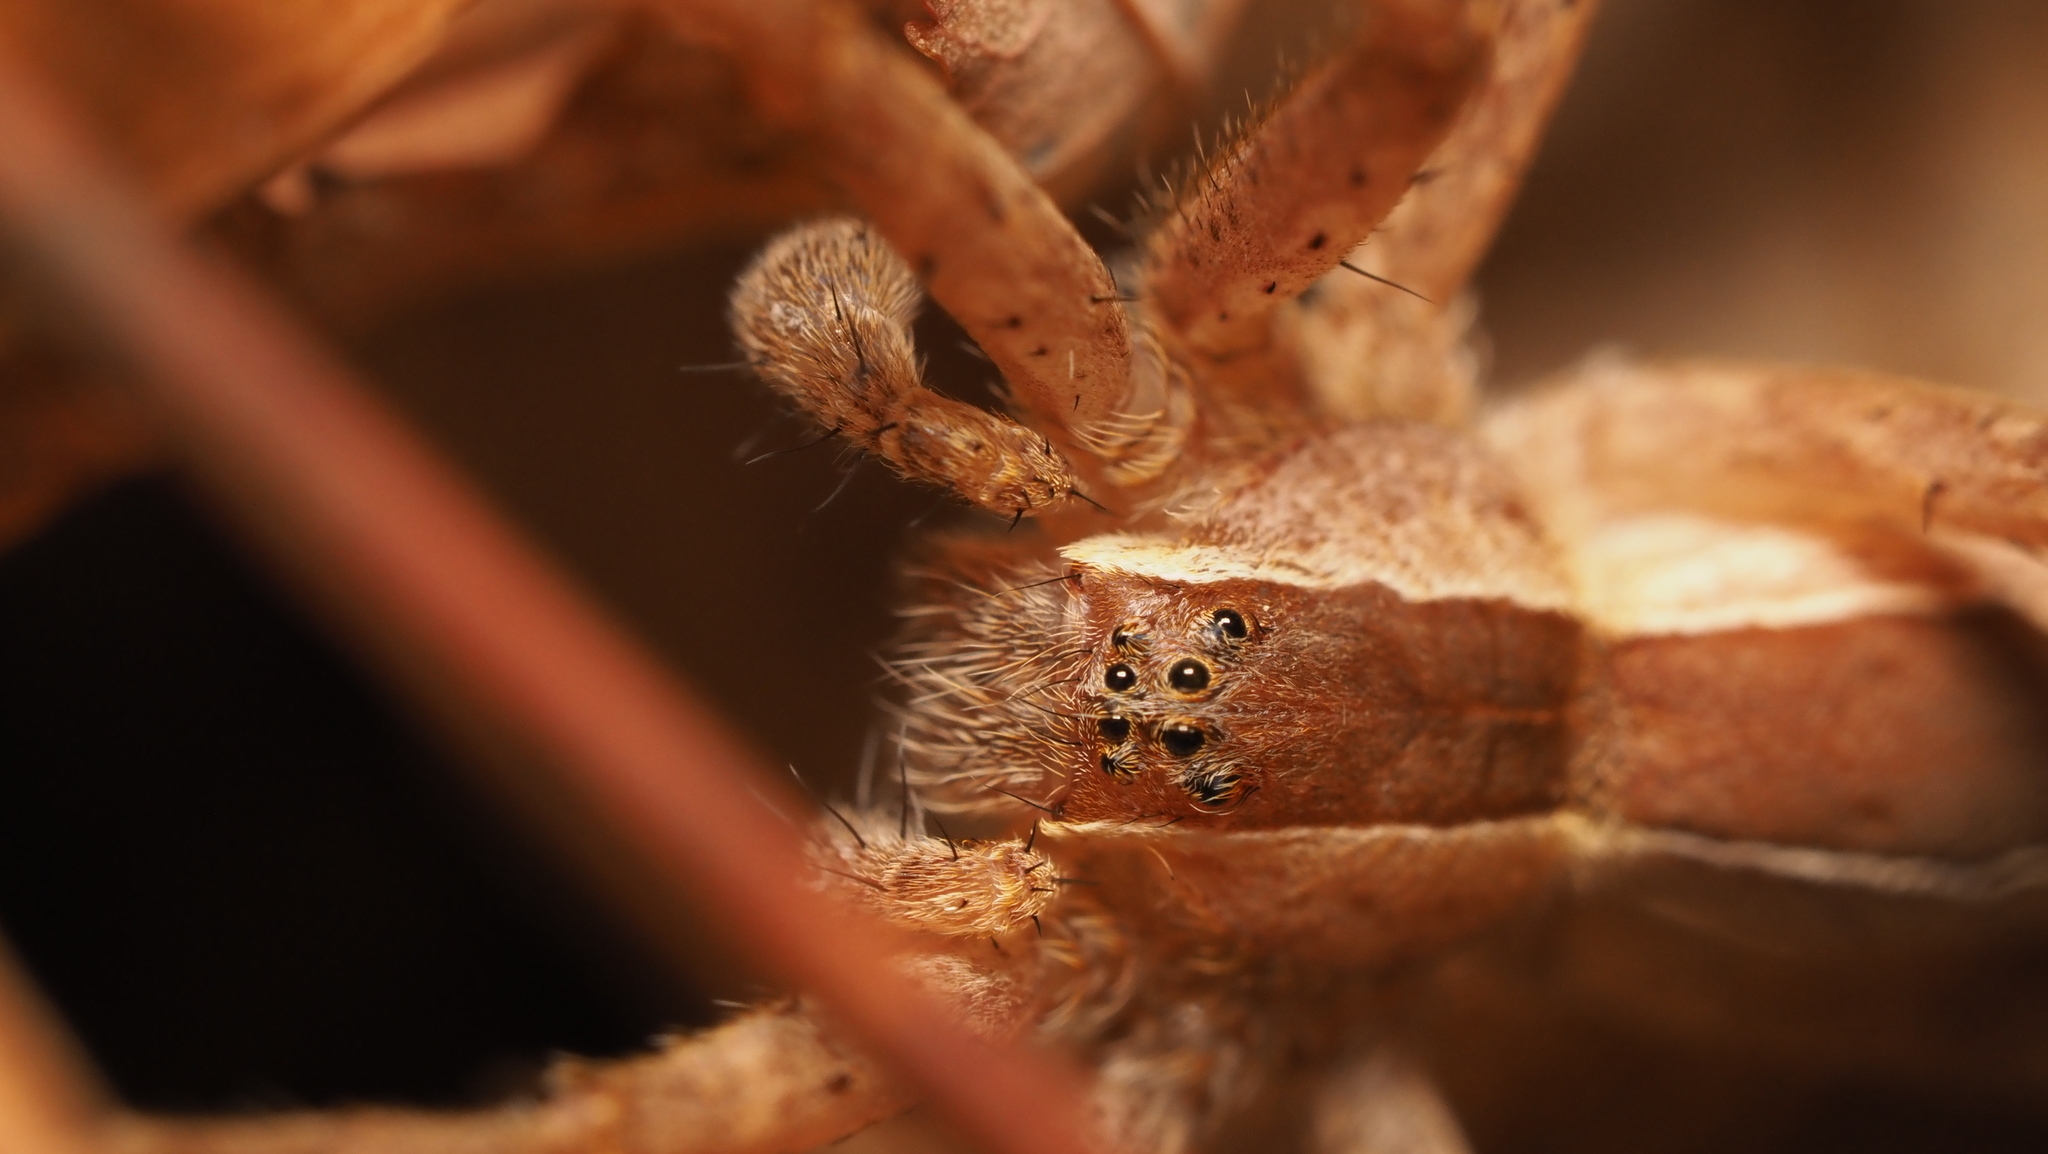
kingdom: Animalia
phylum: Arthropoda
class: Arachnida
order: Araneae
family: Pisauridae
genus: Pisaurina
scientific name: Pisaurina mira
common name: American nursery web spider
